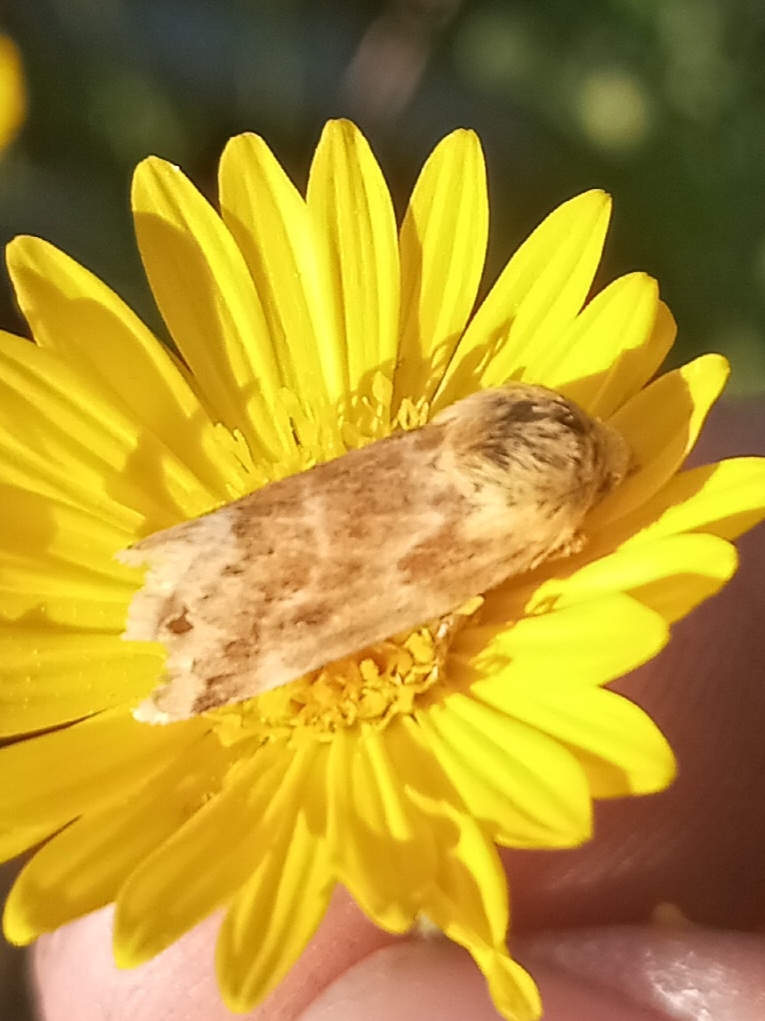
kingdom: Animalia
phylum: Arthropoda
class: Insecta
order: Lepidoptera
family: Noctuidae
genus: Schinia
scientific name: Schinia siren
